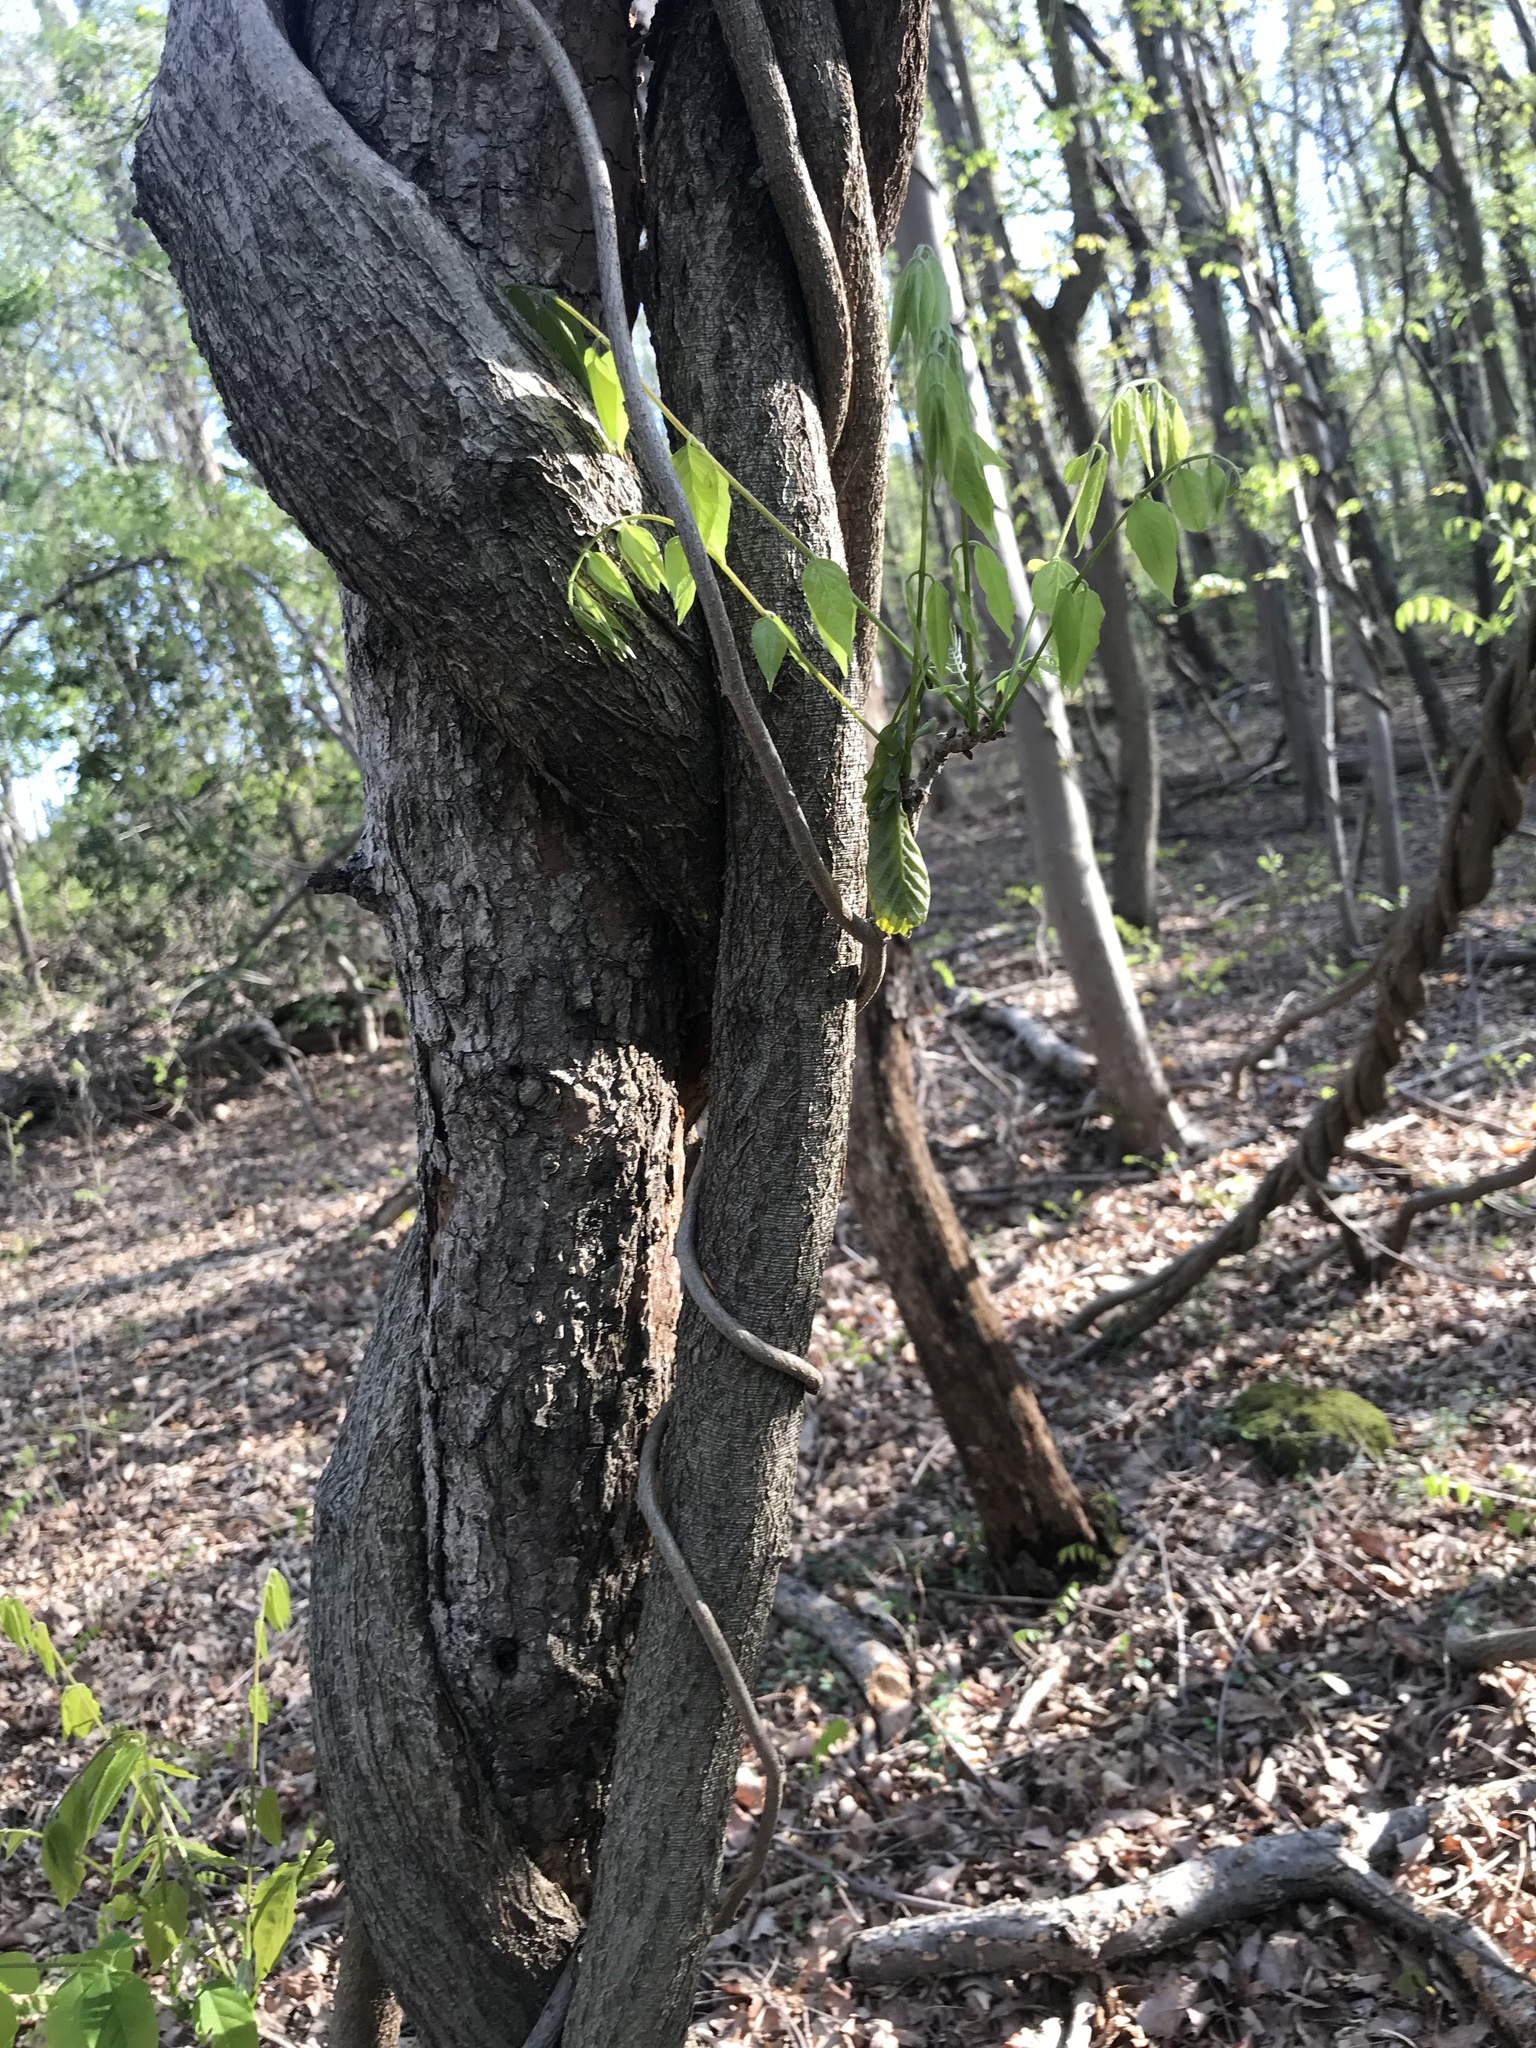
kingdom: Plantae
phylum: Tracheophyta
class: Magnoliopsida
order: Fabales
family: Fabaceae
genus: Wisteria
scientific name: Wisteria floribunda
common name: Japanese wisteria
